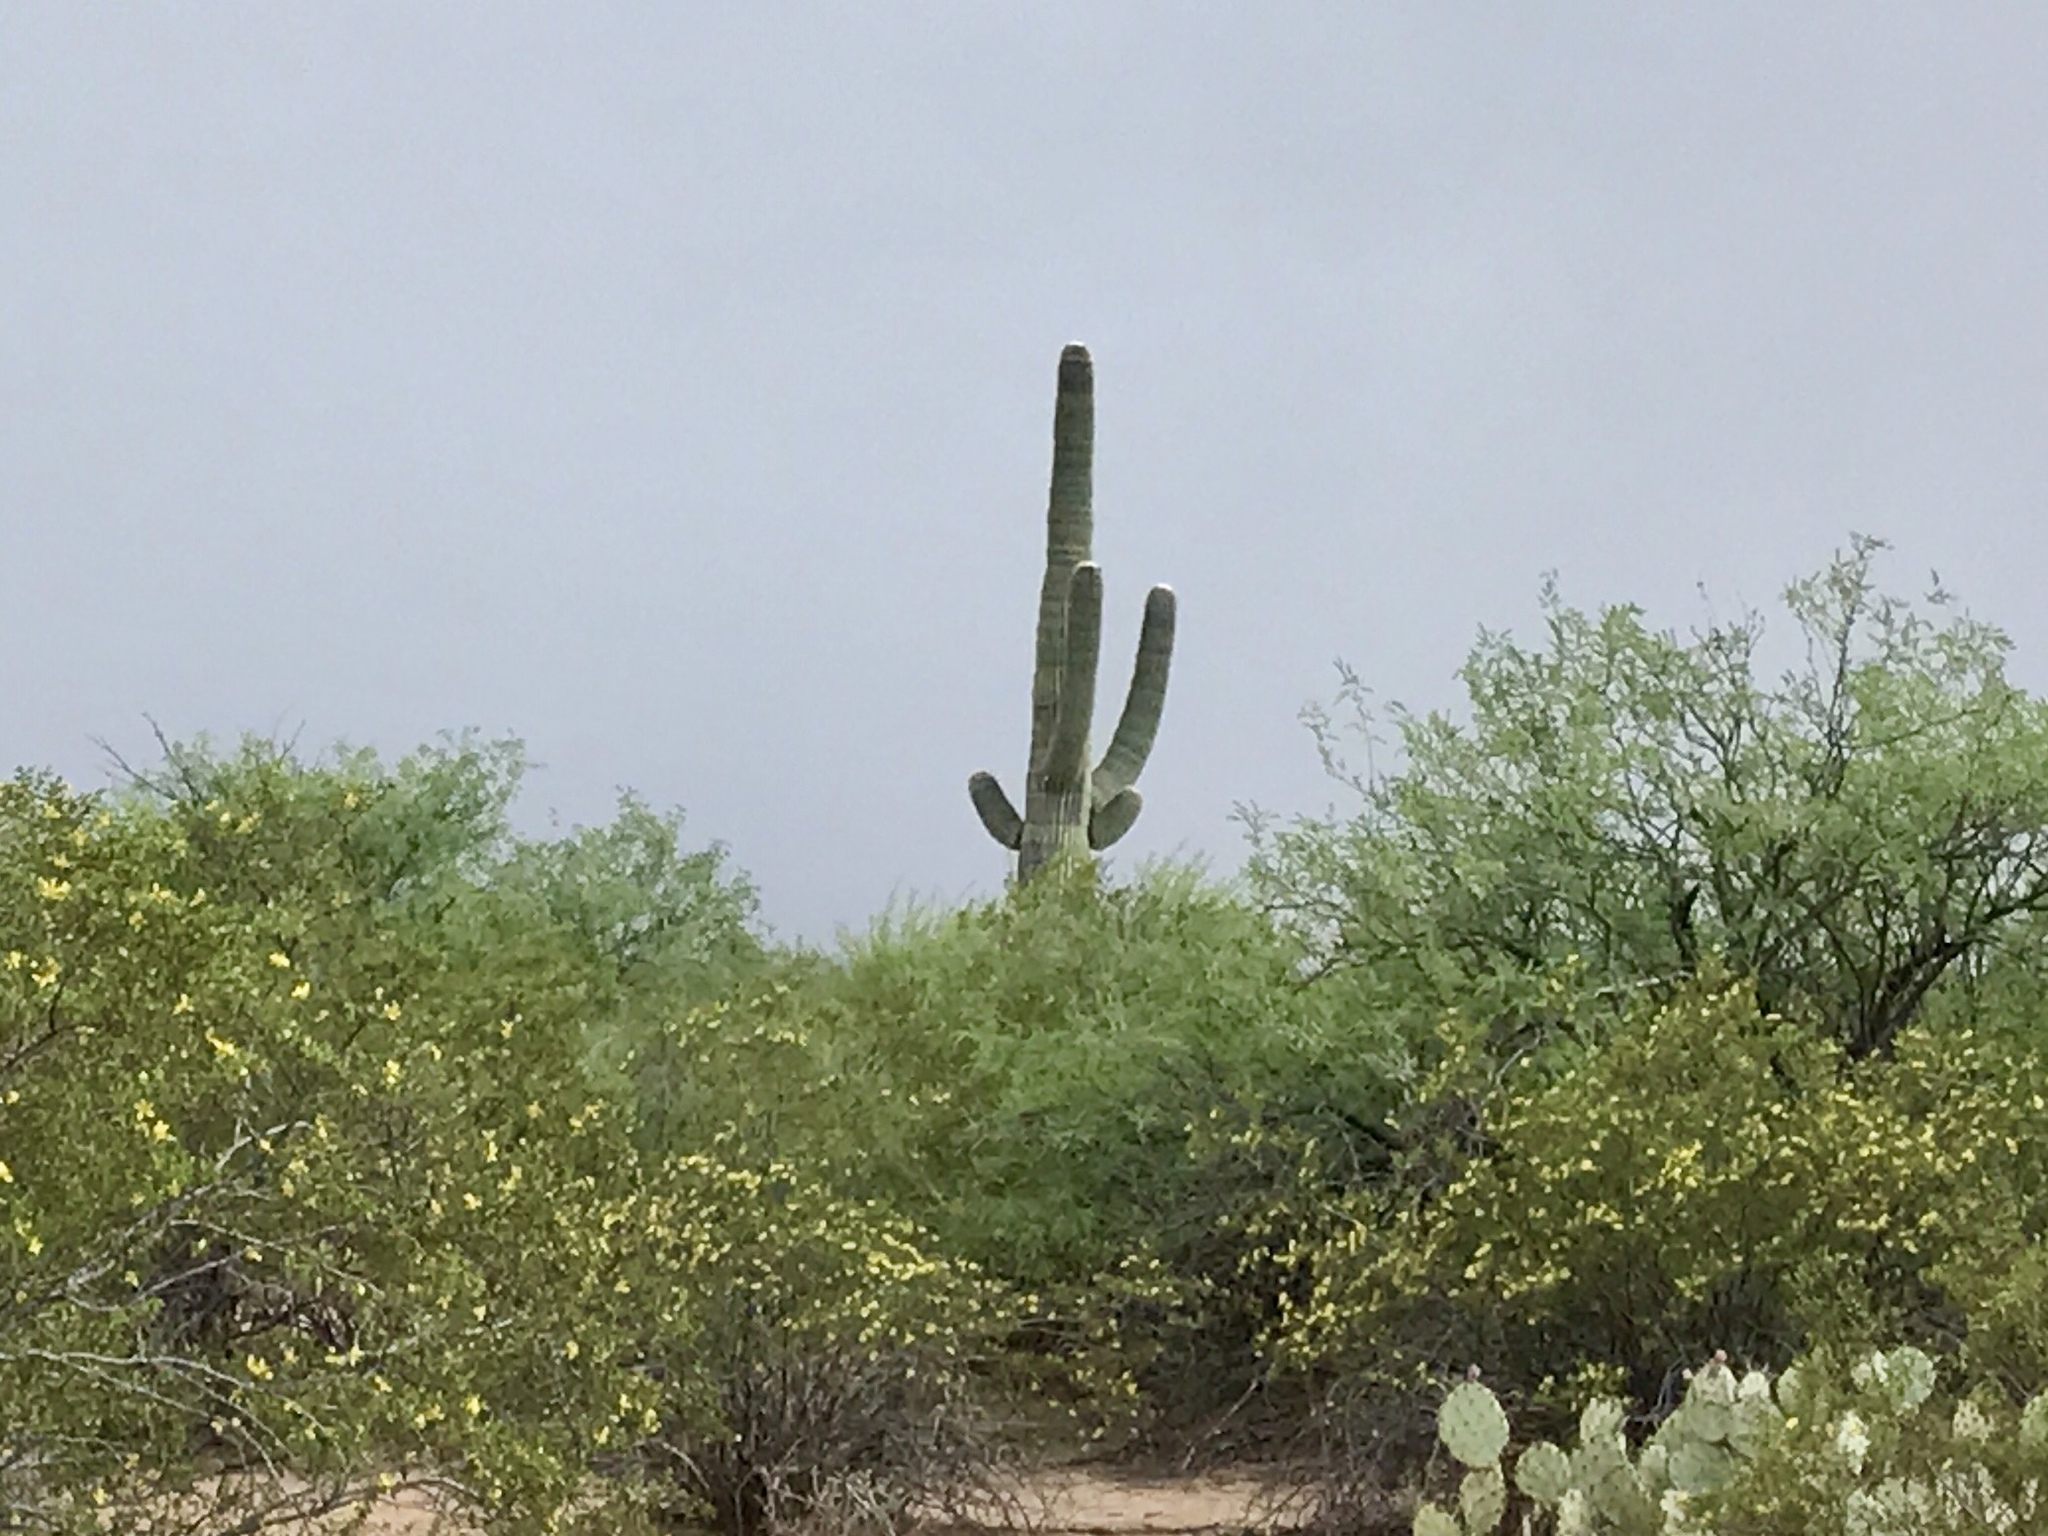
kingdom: Plantae
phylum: Tracheophyta
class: Magnoliopsida
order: Caryophyllales
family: Cactaceae
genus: Carnegiea
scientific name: Carnegiea gigantea
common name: Saguaro
